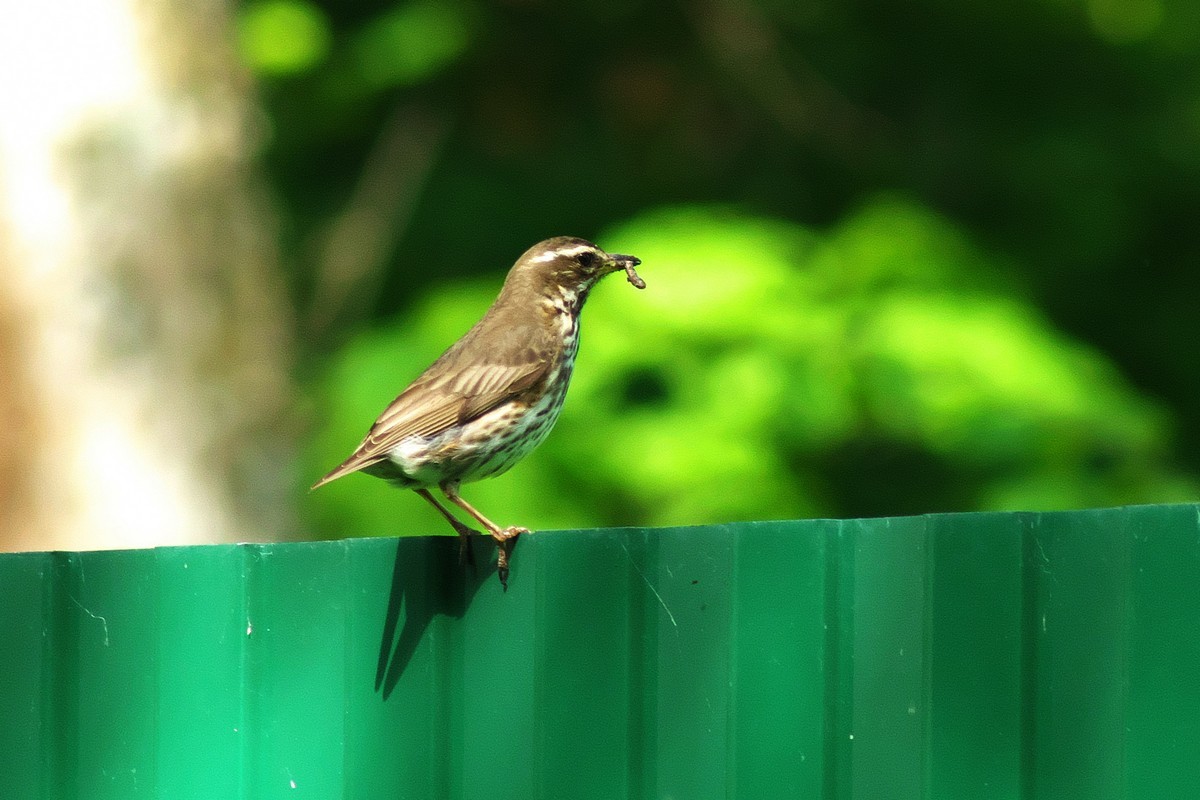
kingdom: Animalia
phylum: Chordata
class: Aves
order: Passeriformes
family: Turdidae
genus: Turdus
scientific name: Turdus iliacus
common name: Redwing
